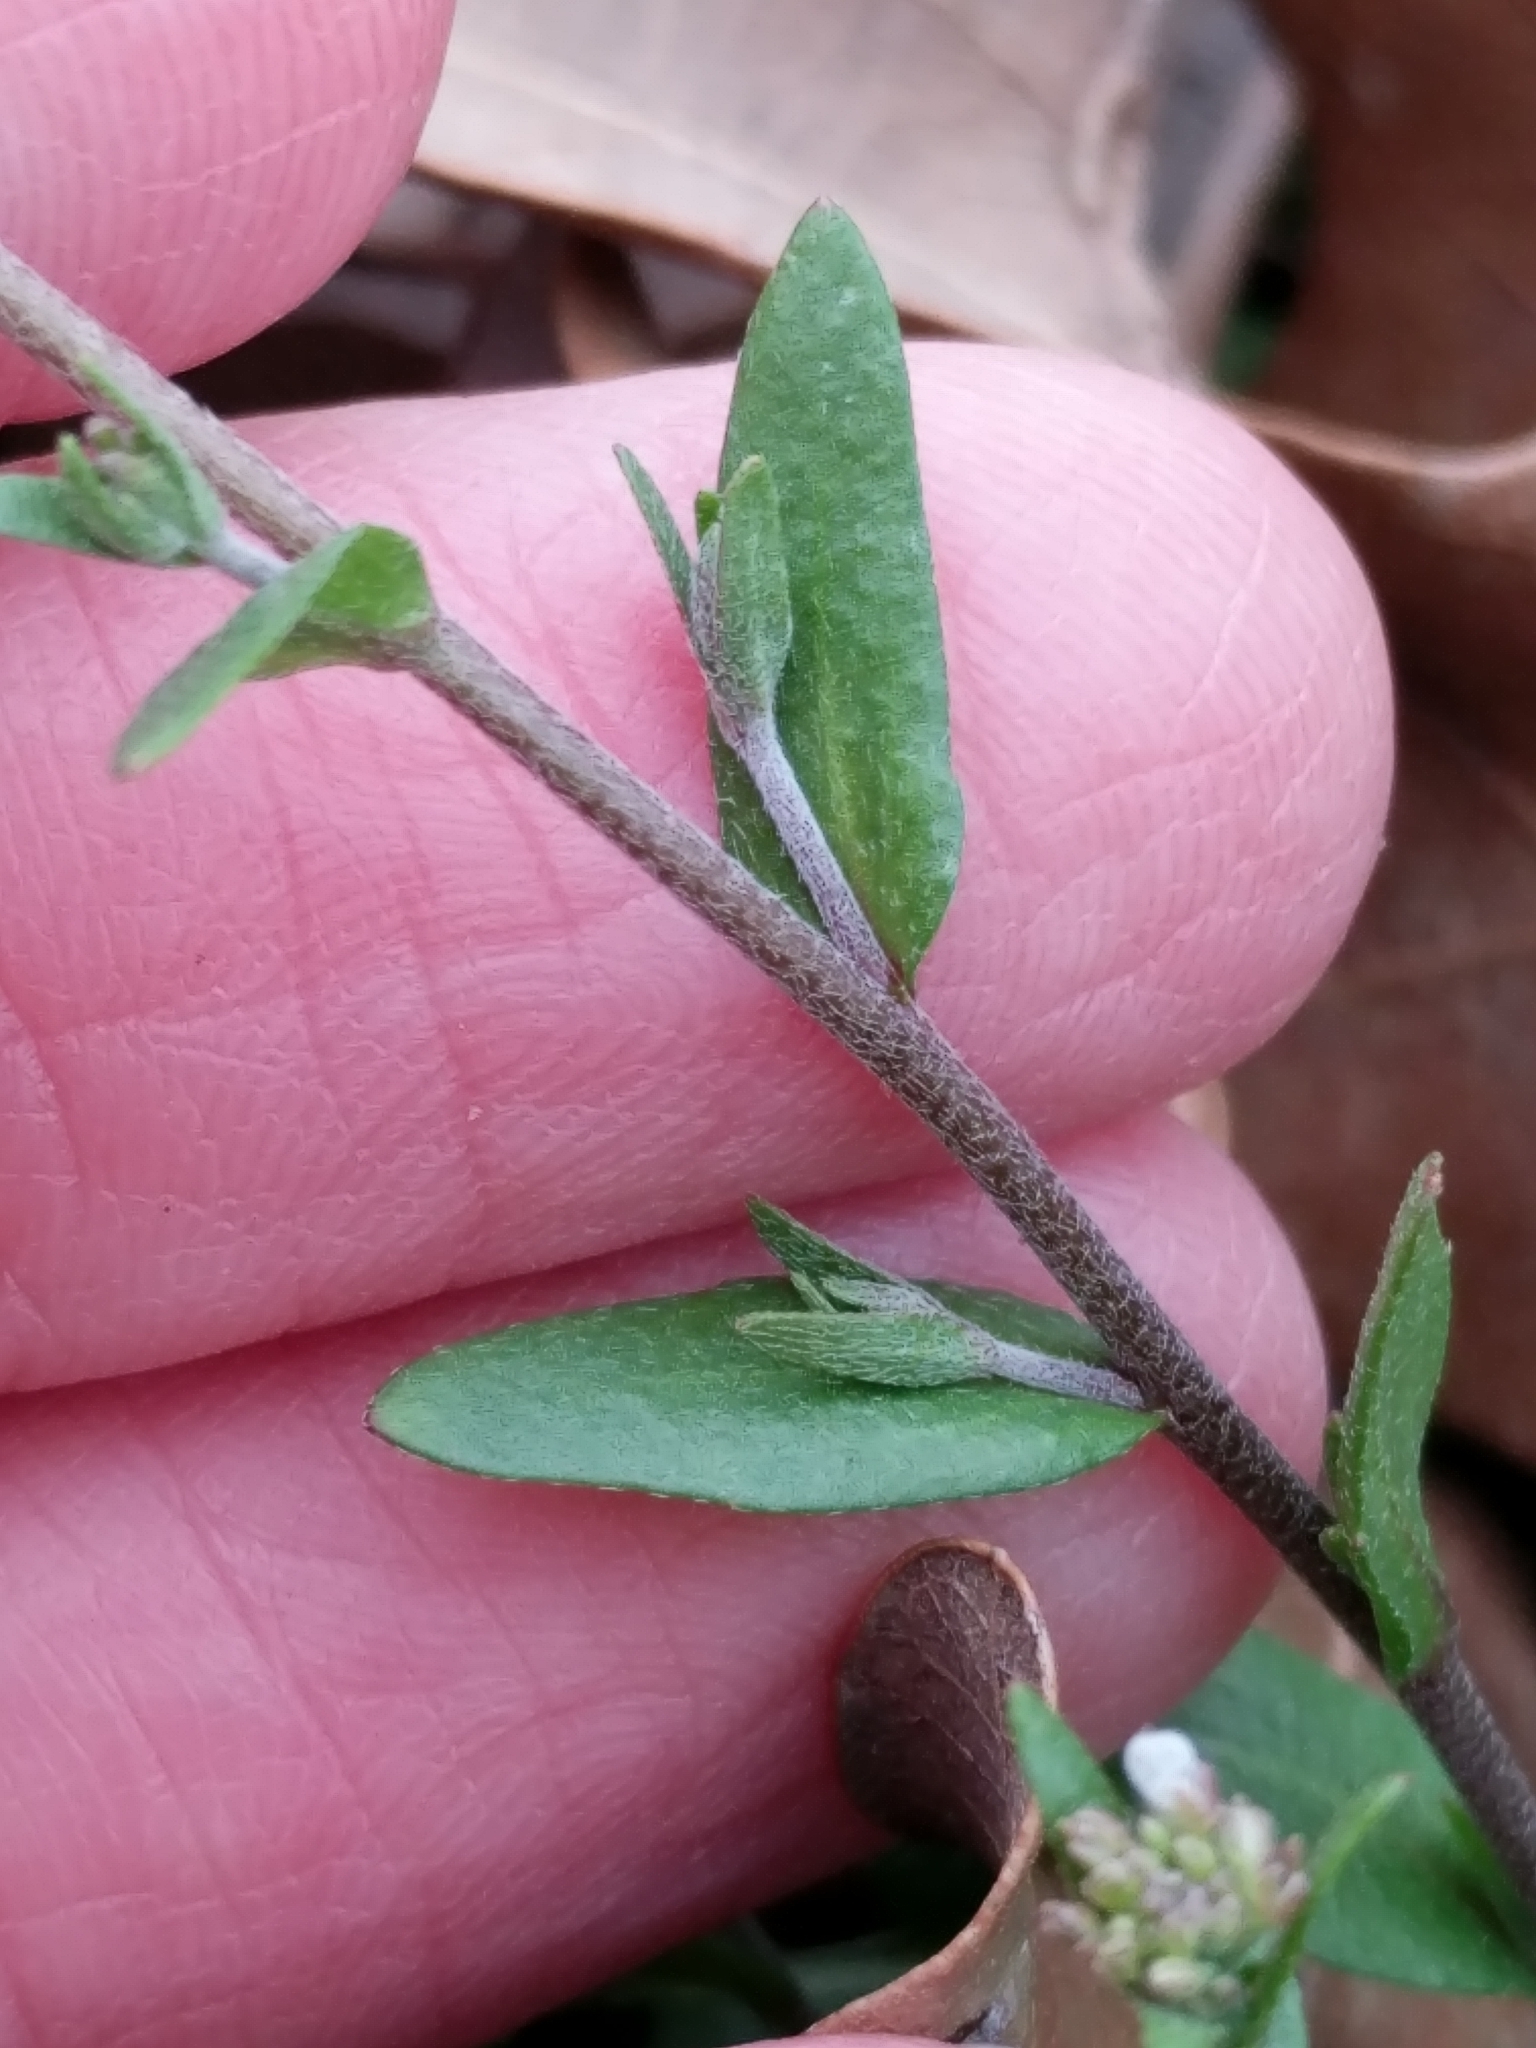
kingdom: Plantae
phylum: Tracheophyta
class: Magnoliopsida
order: Brassicales
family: Brassicaceae
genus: Abdra
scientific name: Abdra brachycarpa
